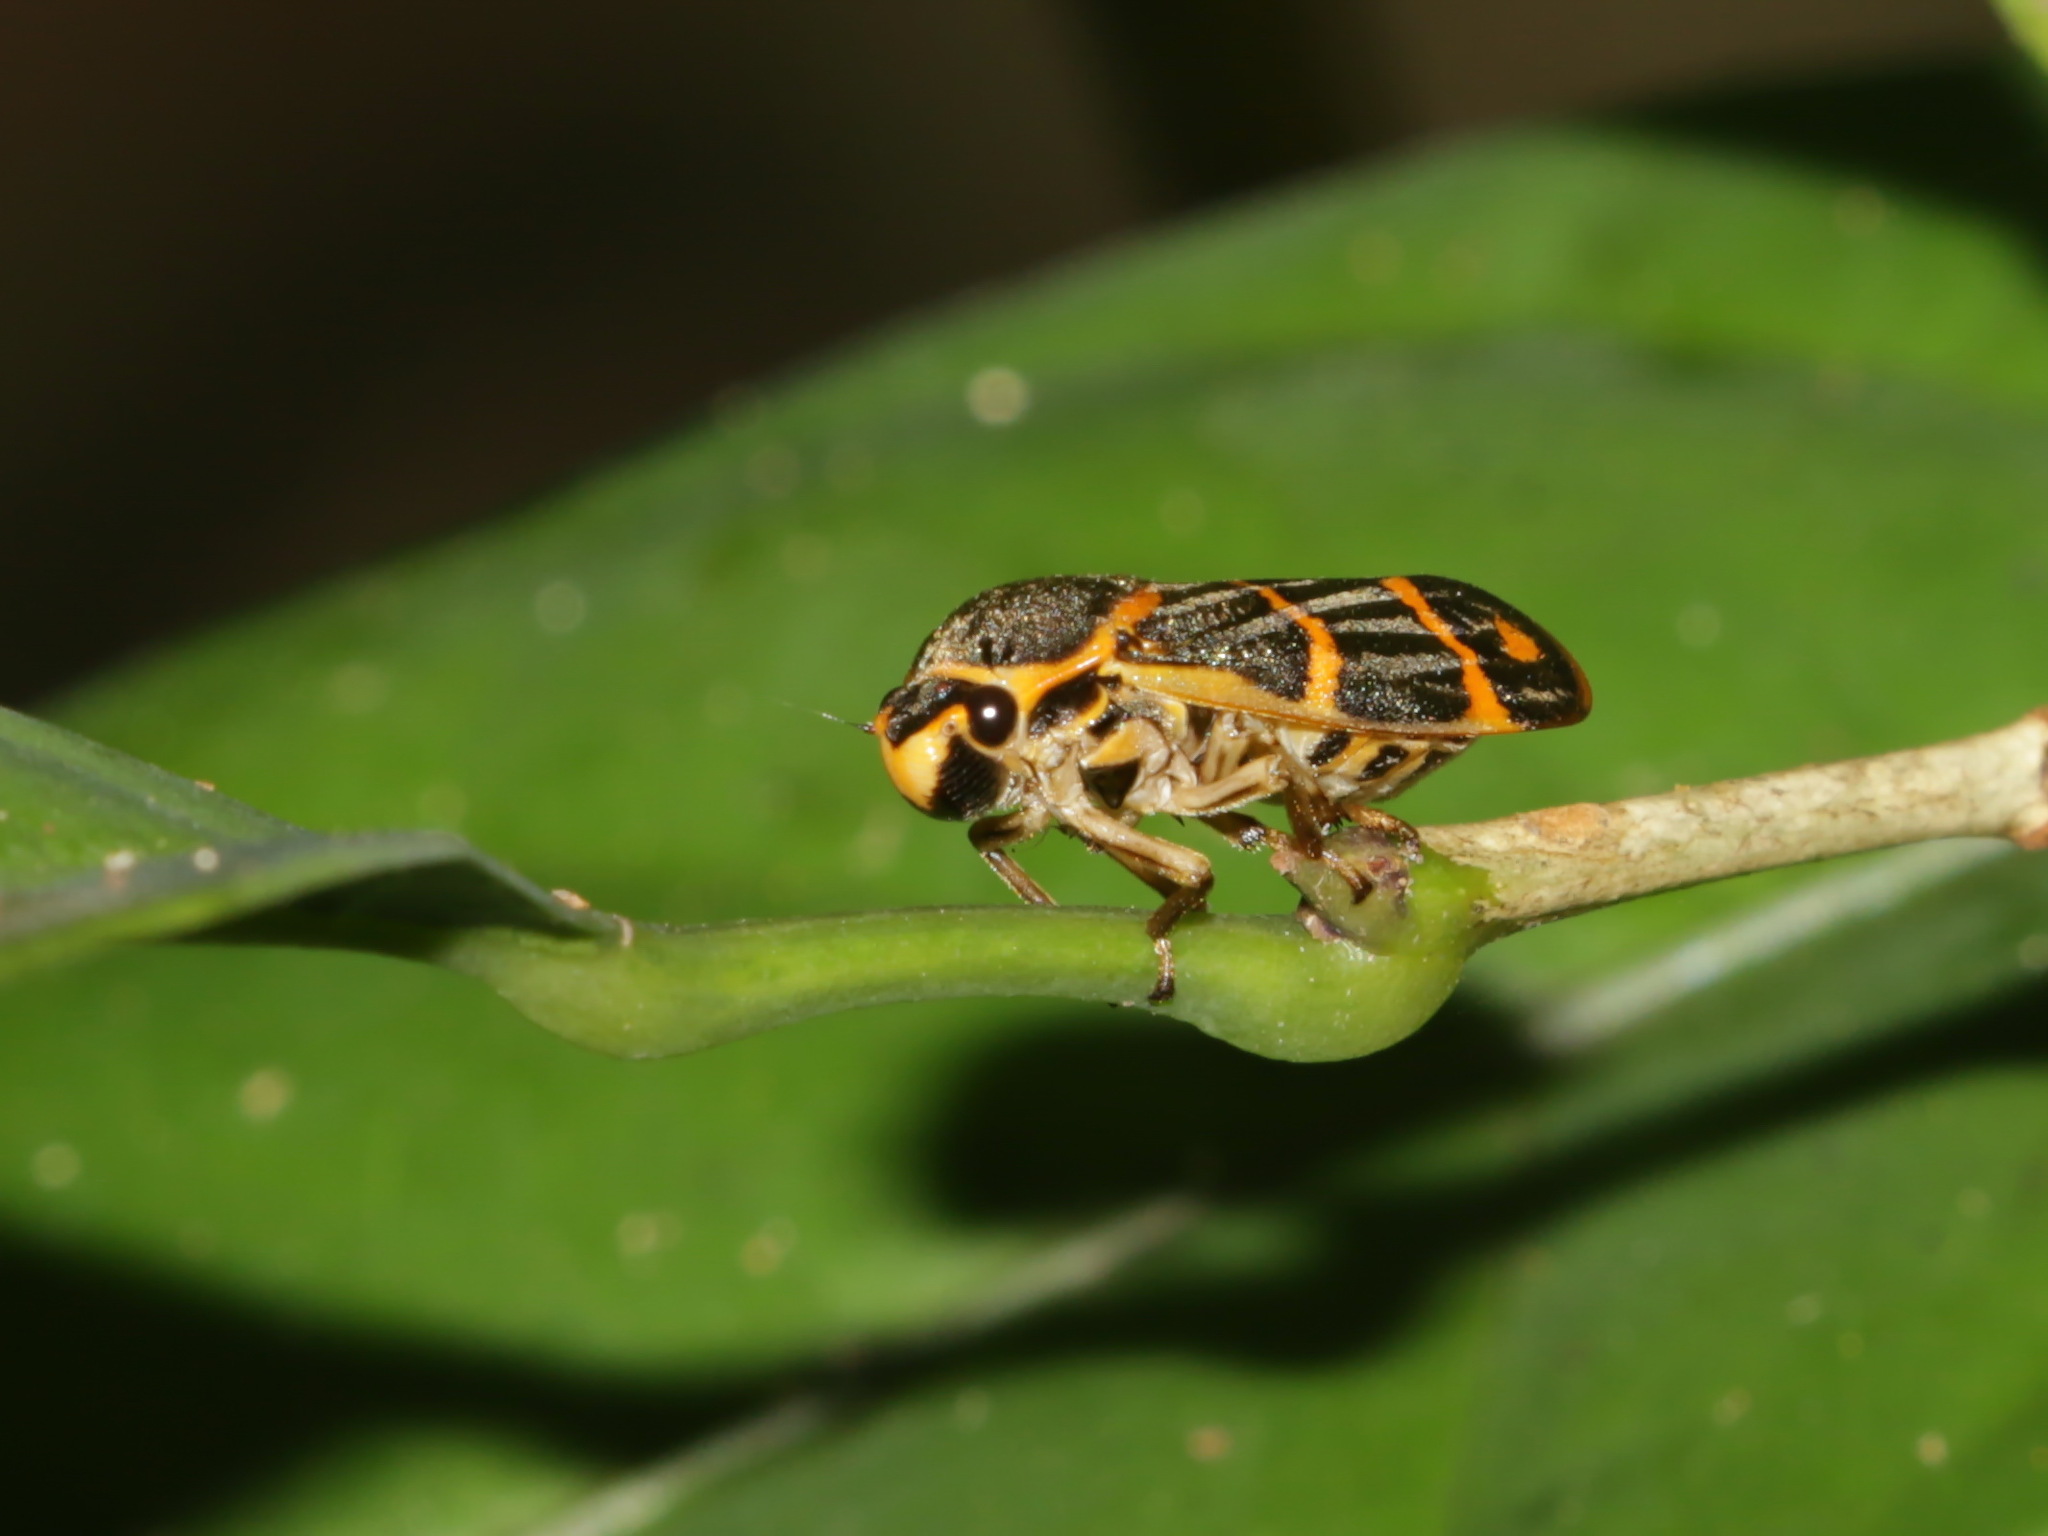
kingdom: Animalia
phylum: Arthropoda
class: Insecta
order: Hemiptera
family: Cercopidae
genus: Phymatostetha
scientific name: Phymatostetha borneensis
